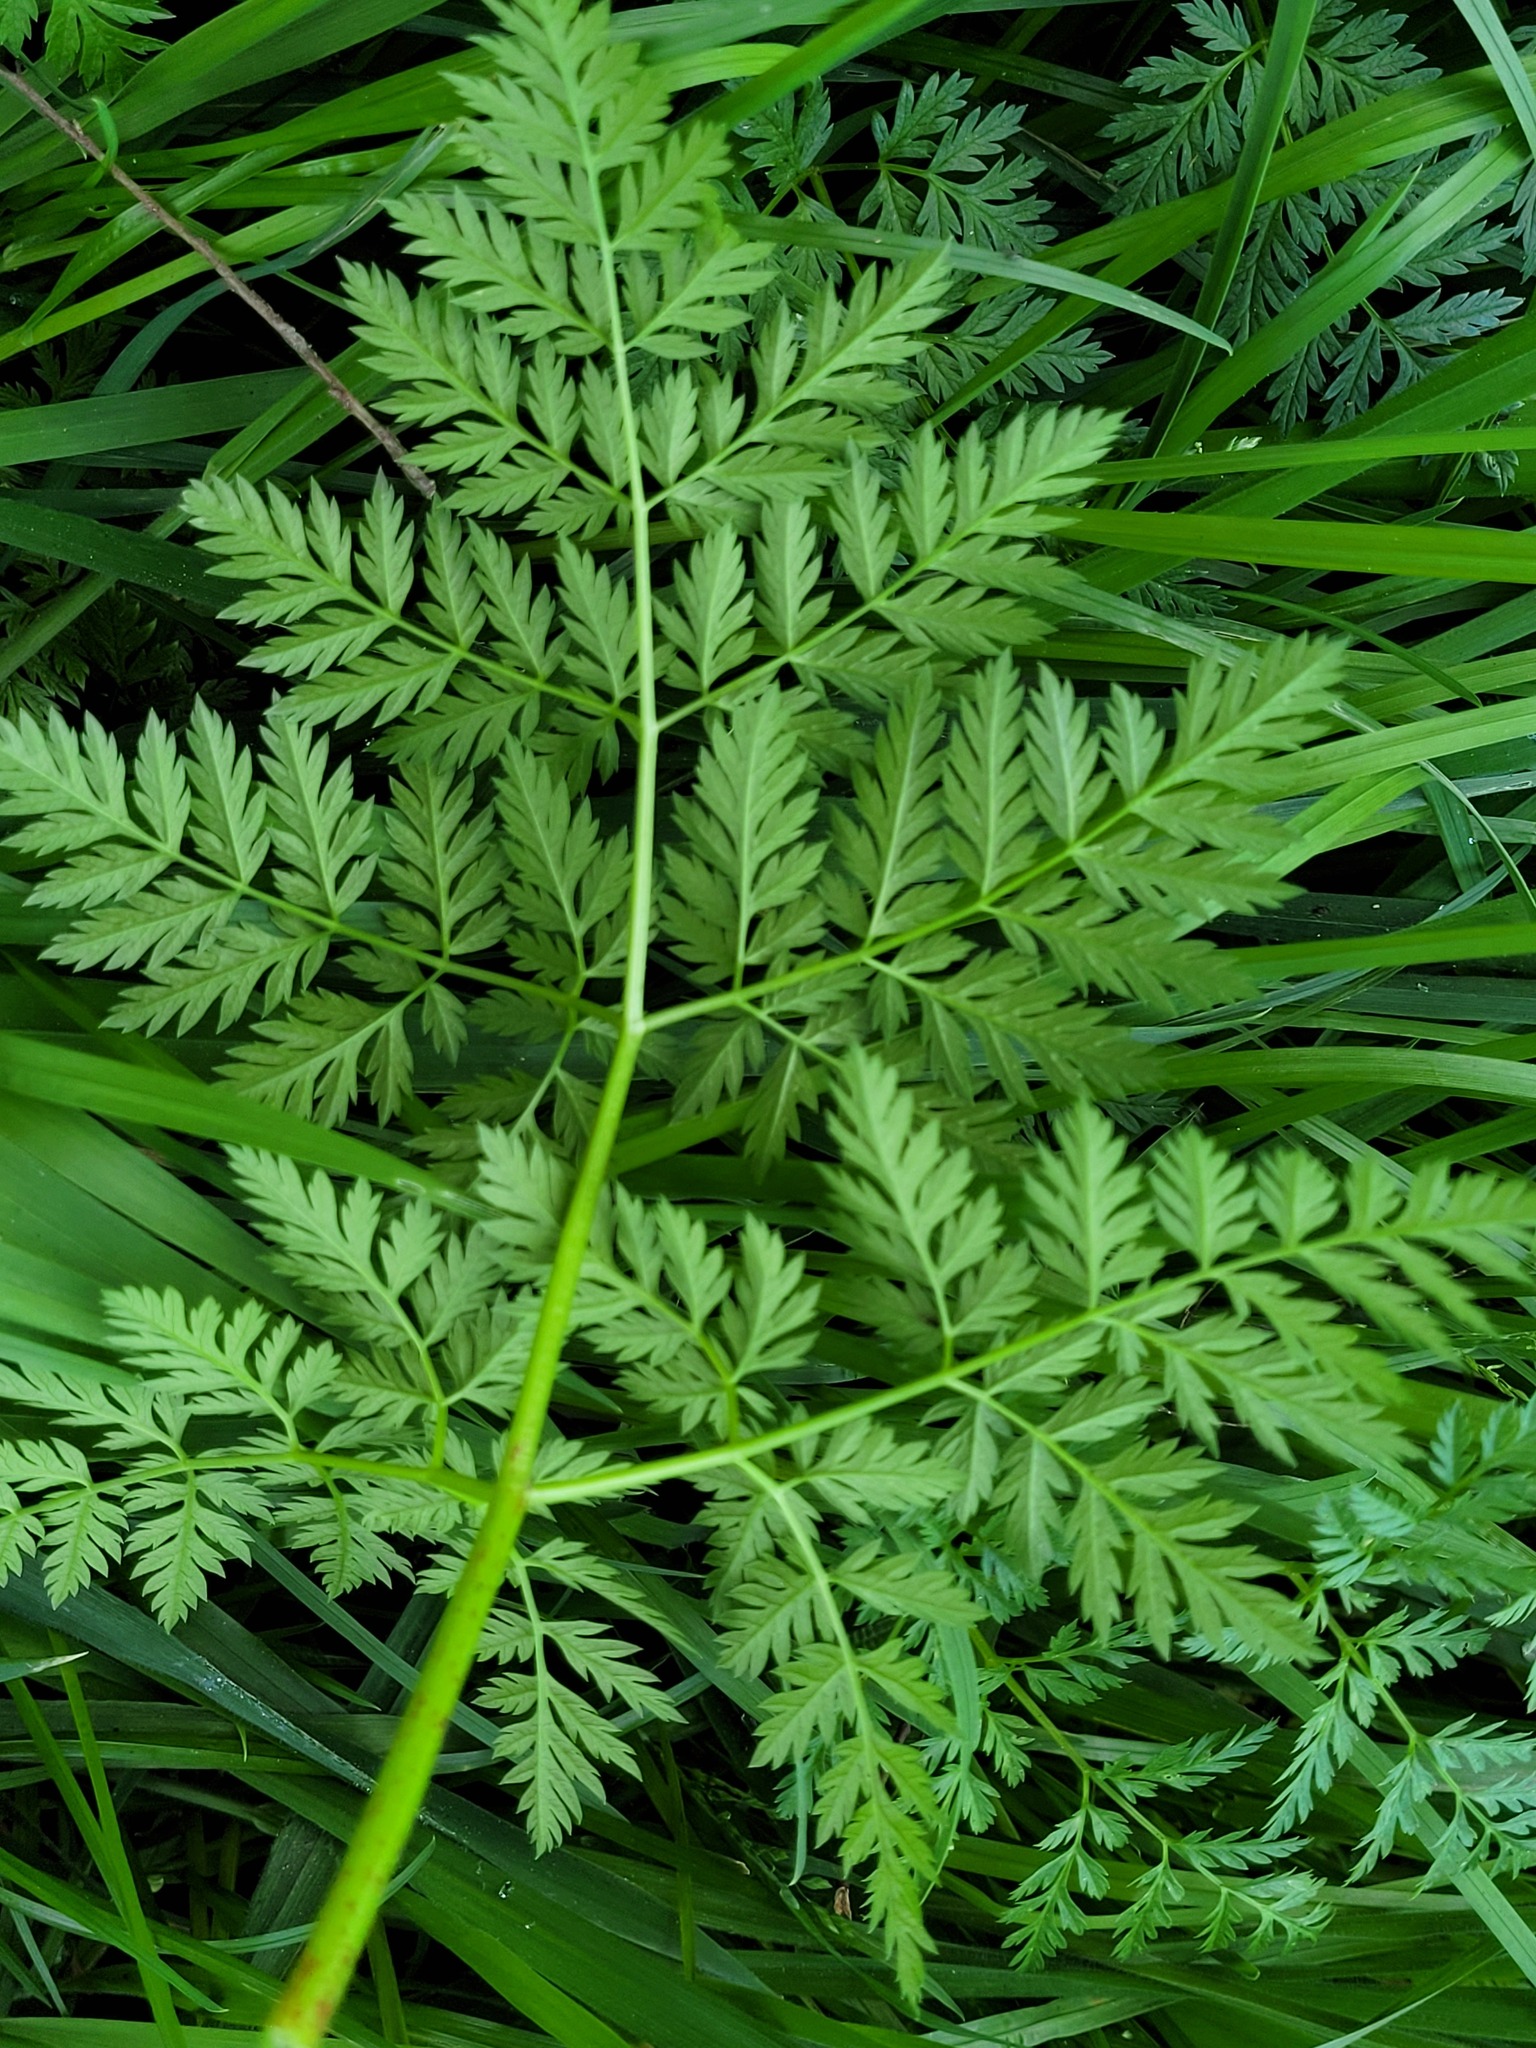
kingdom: Plantae
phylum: Tracheophyta
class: Magnoliopsida
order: Apiales
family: Apiaceae
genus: Conium
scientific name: Conium maculatum
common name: Hemlock
